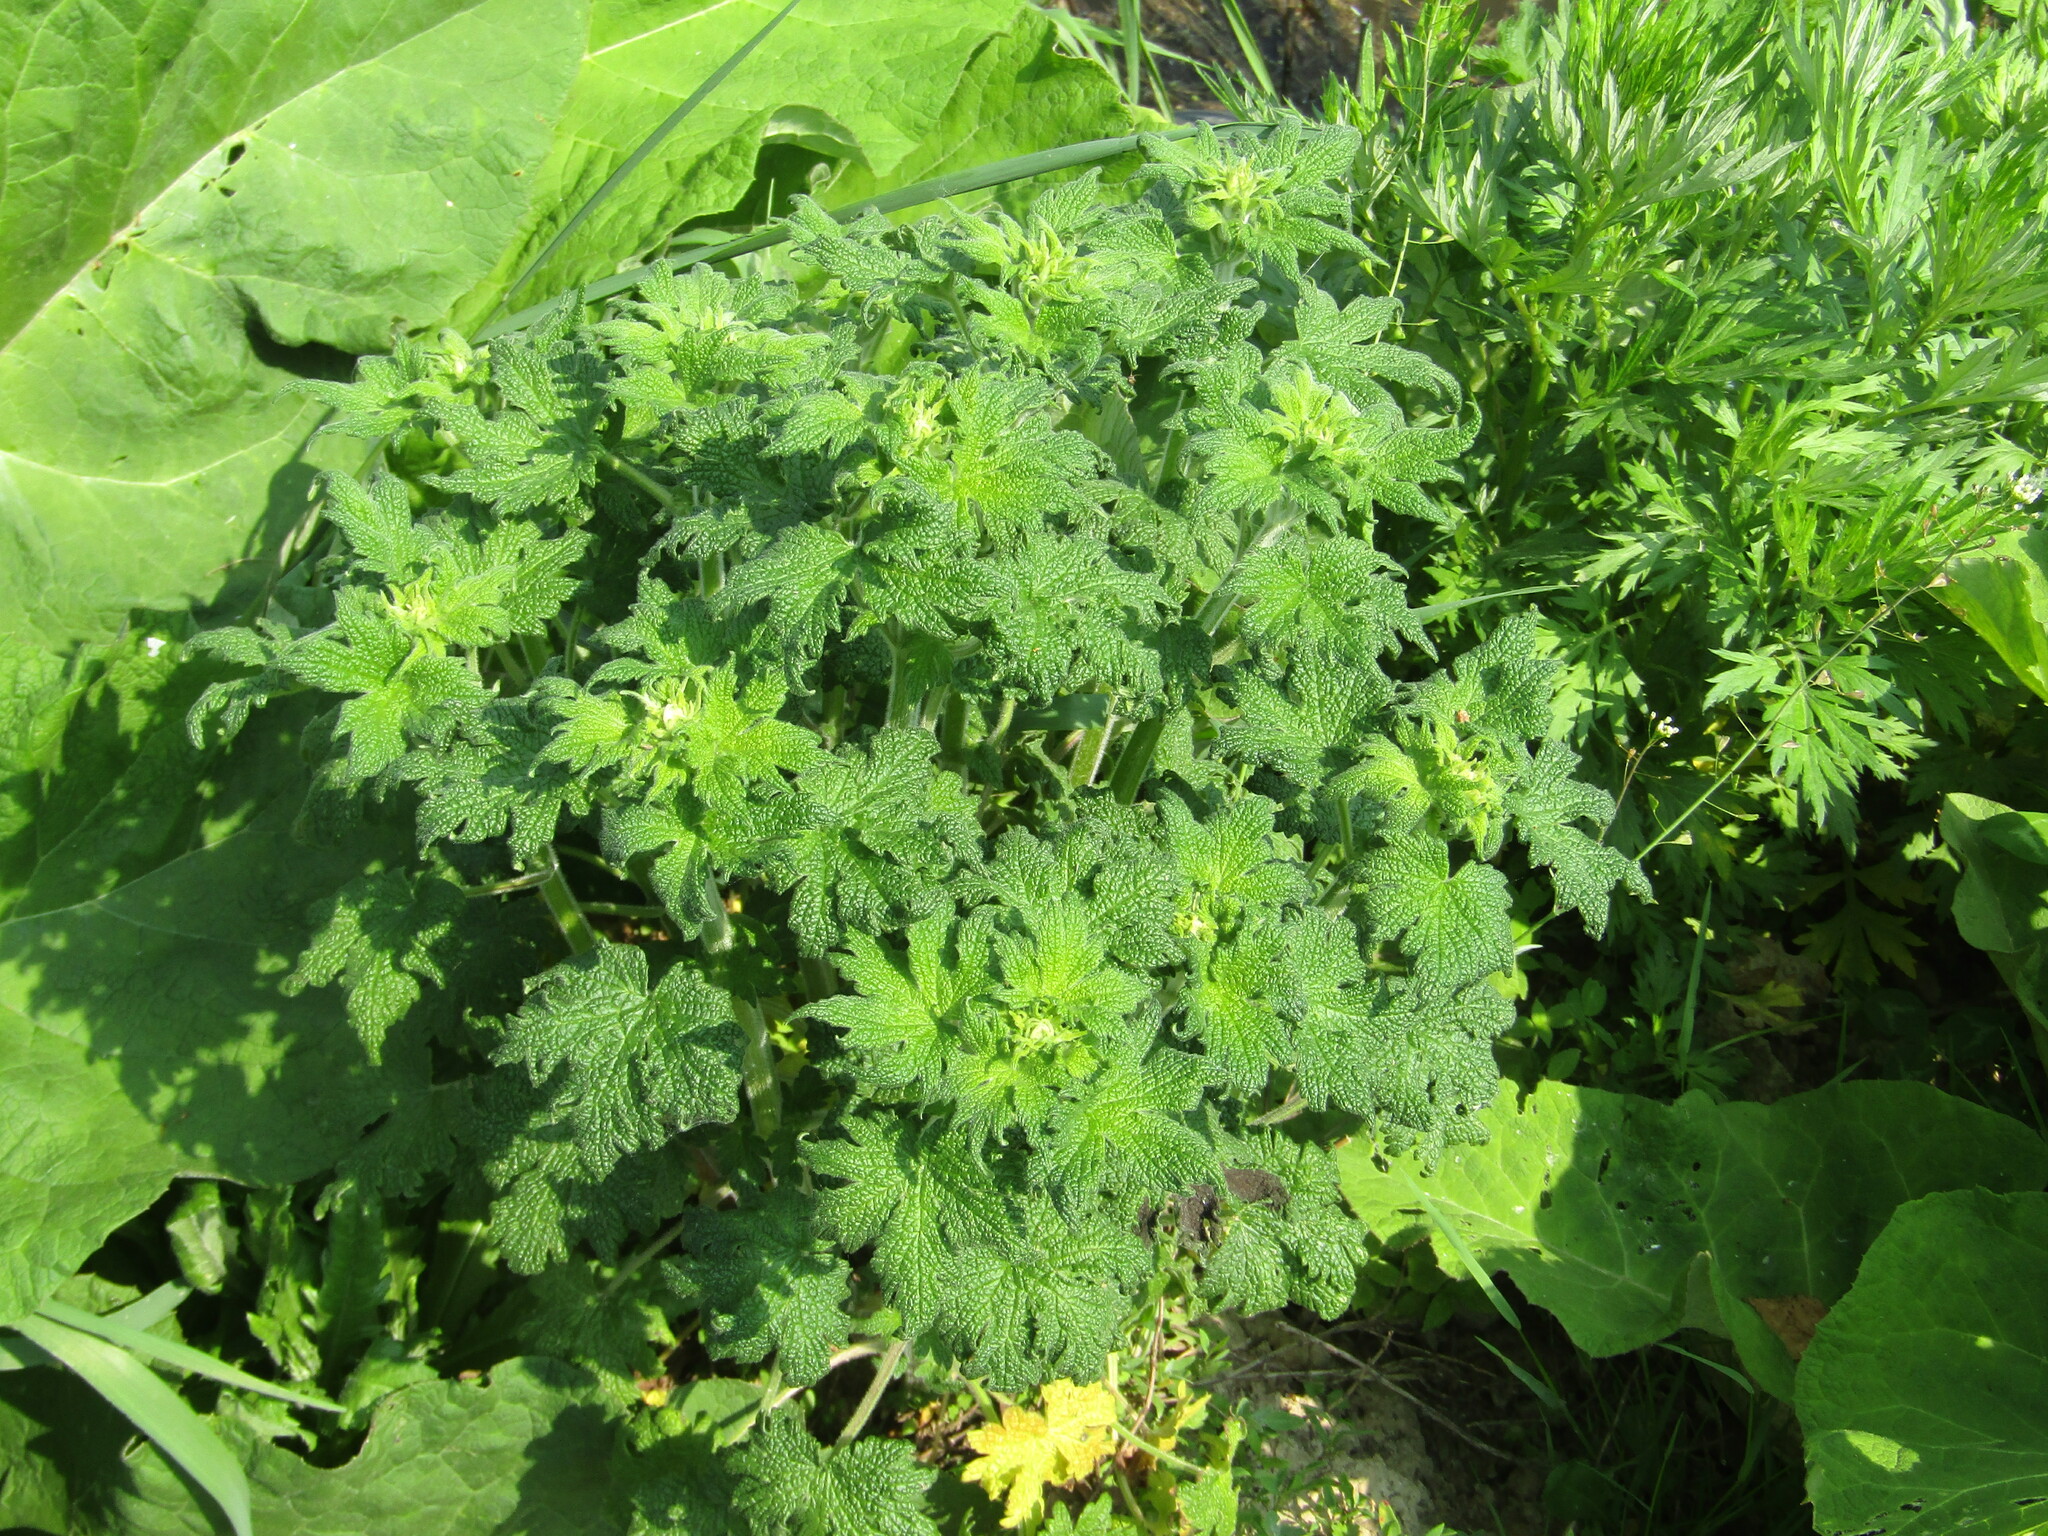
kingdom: Plantae
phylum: Tracheophyta
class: Magnoliopsida
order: Lamiales
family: Lamiaceae
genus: Leonurus
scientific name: Leonurus quinquelobatus
